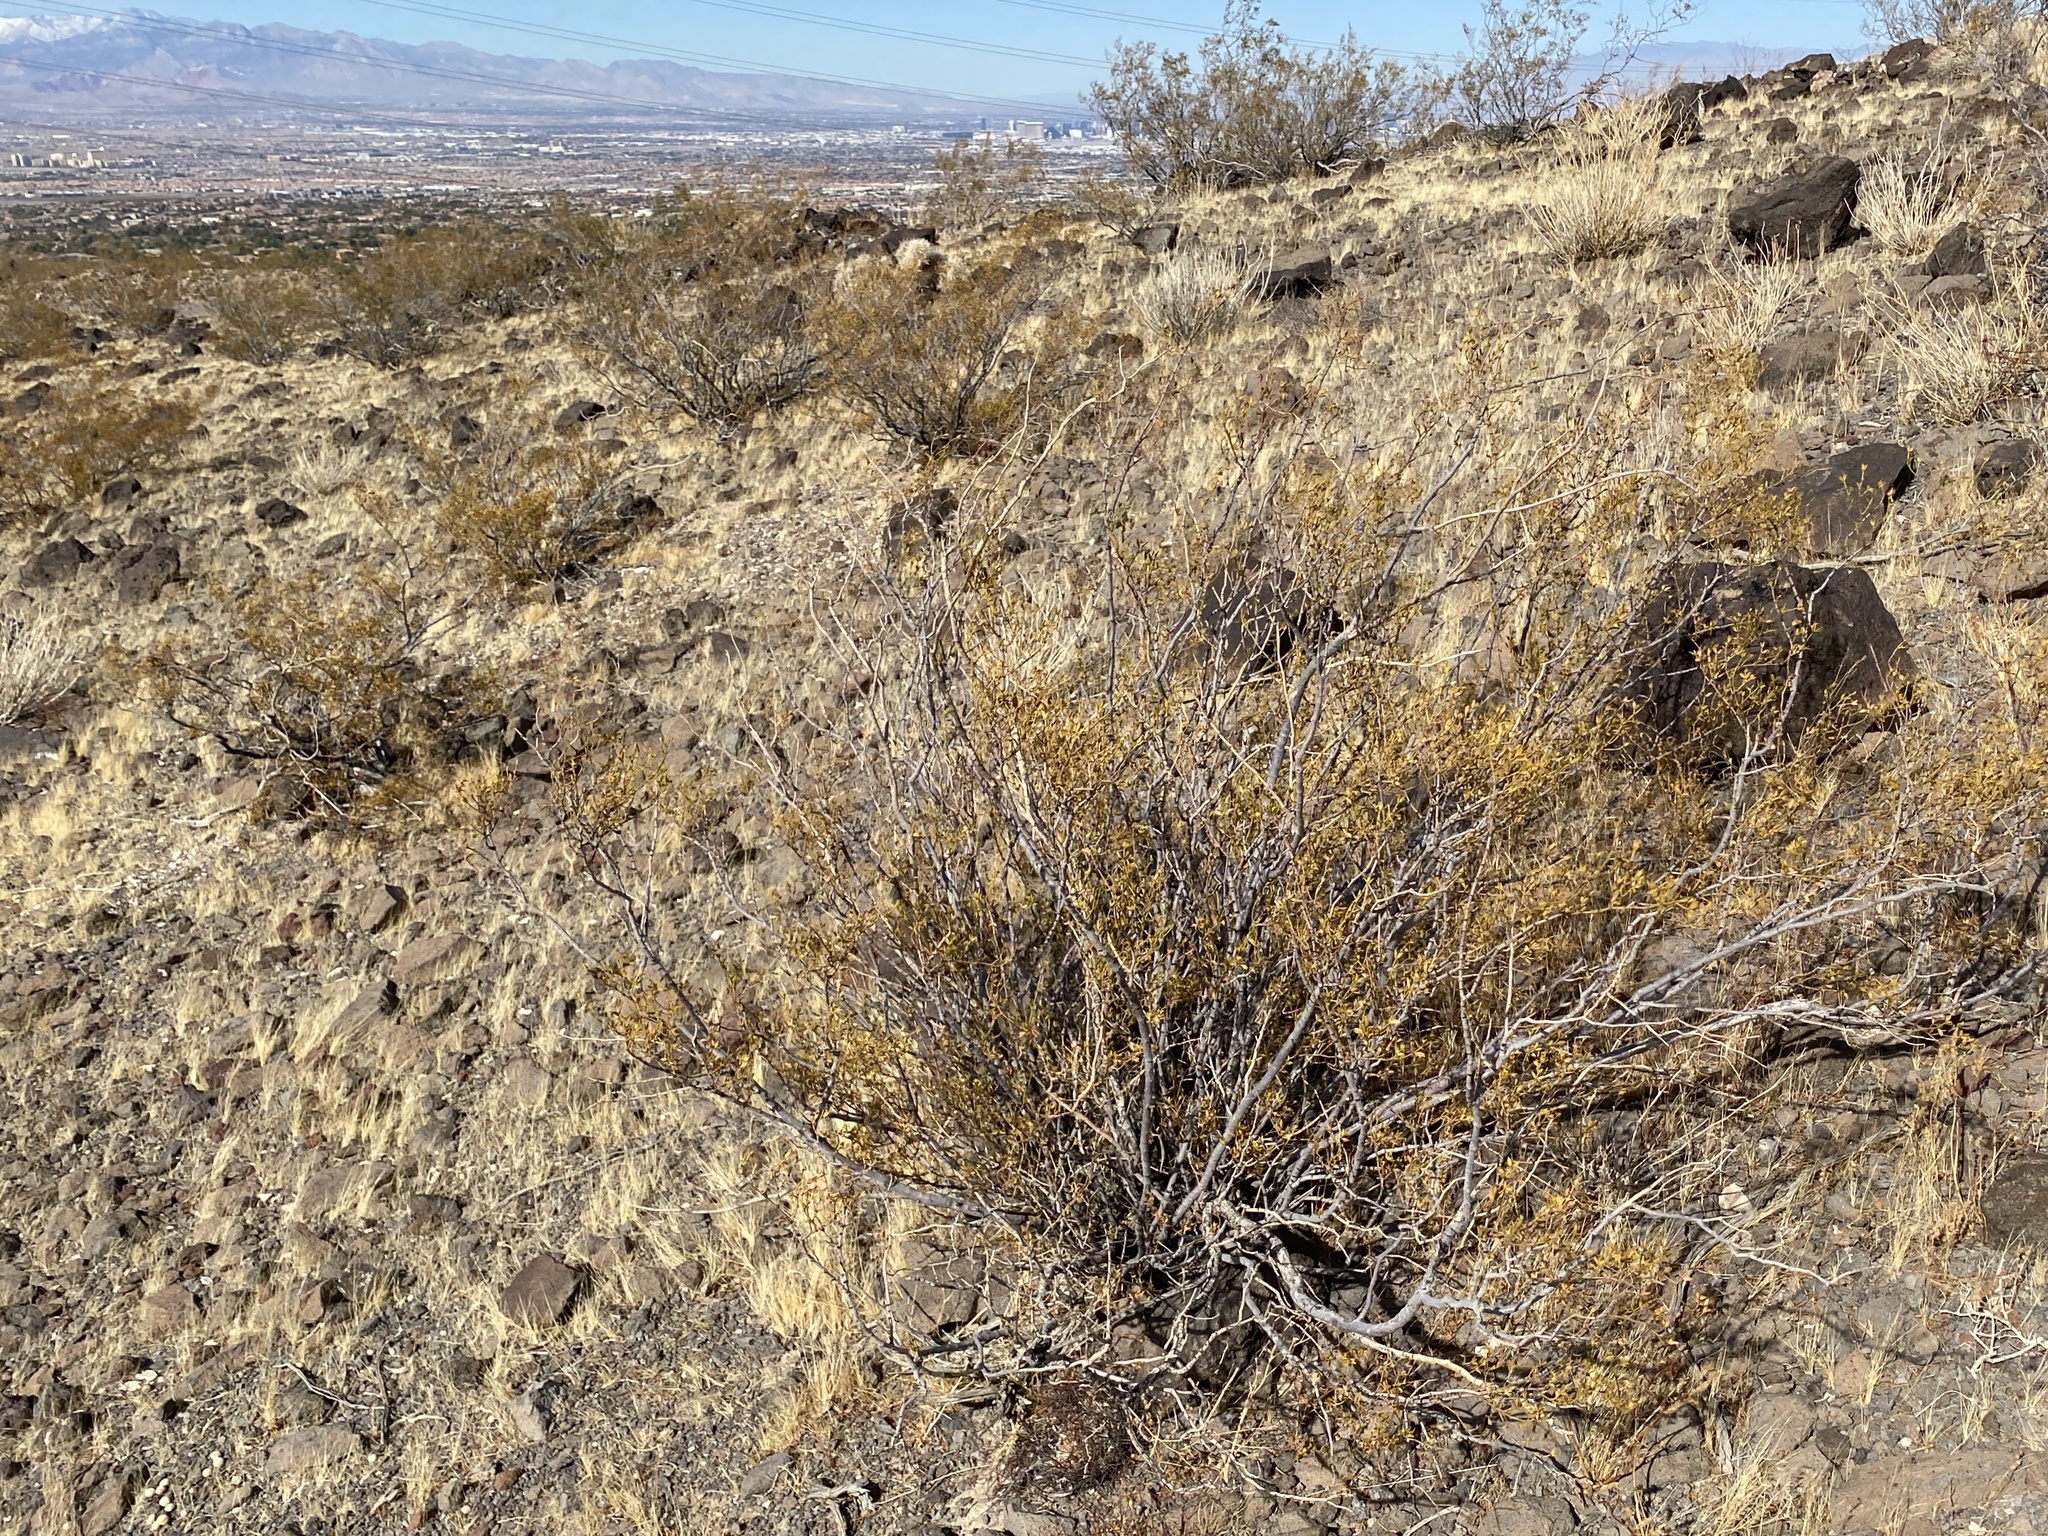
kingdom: Plantae
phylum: Tracheophyta
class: Magnoliopsida
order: Zygophyllales
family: Zygophyllaceae
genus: Larrea
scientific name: Larrea tridentata
